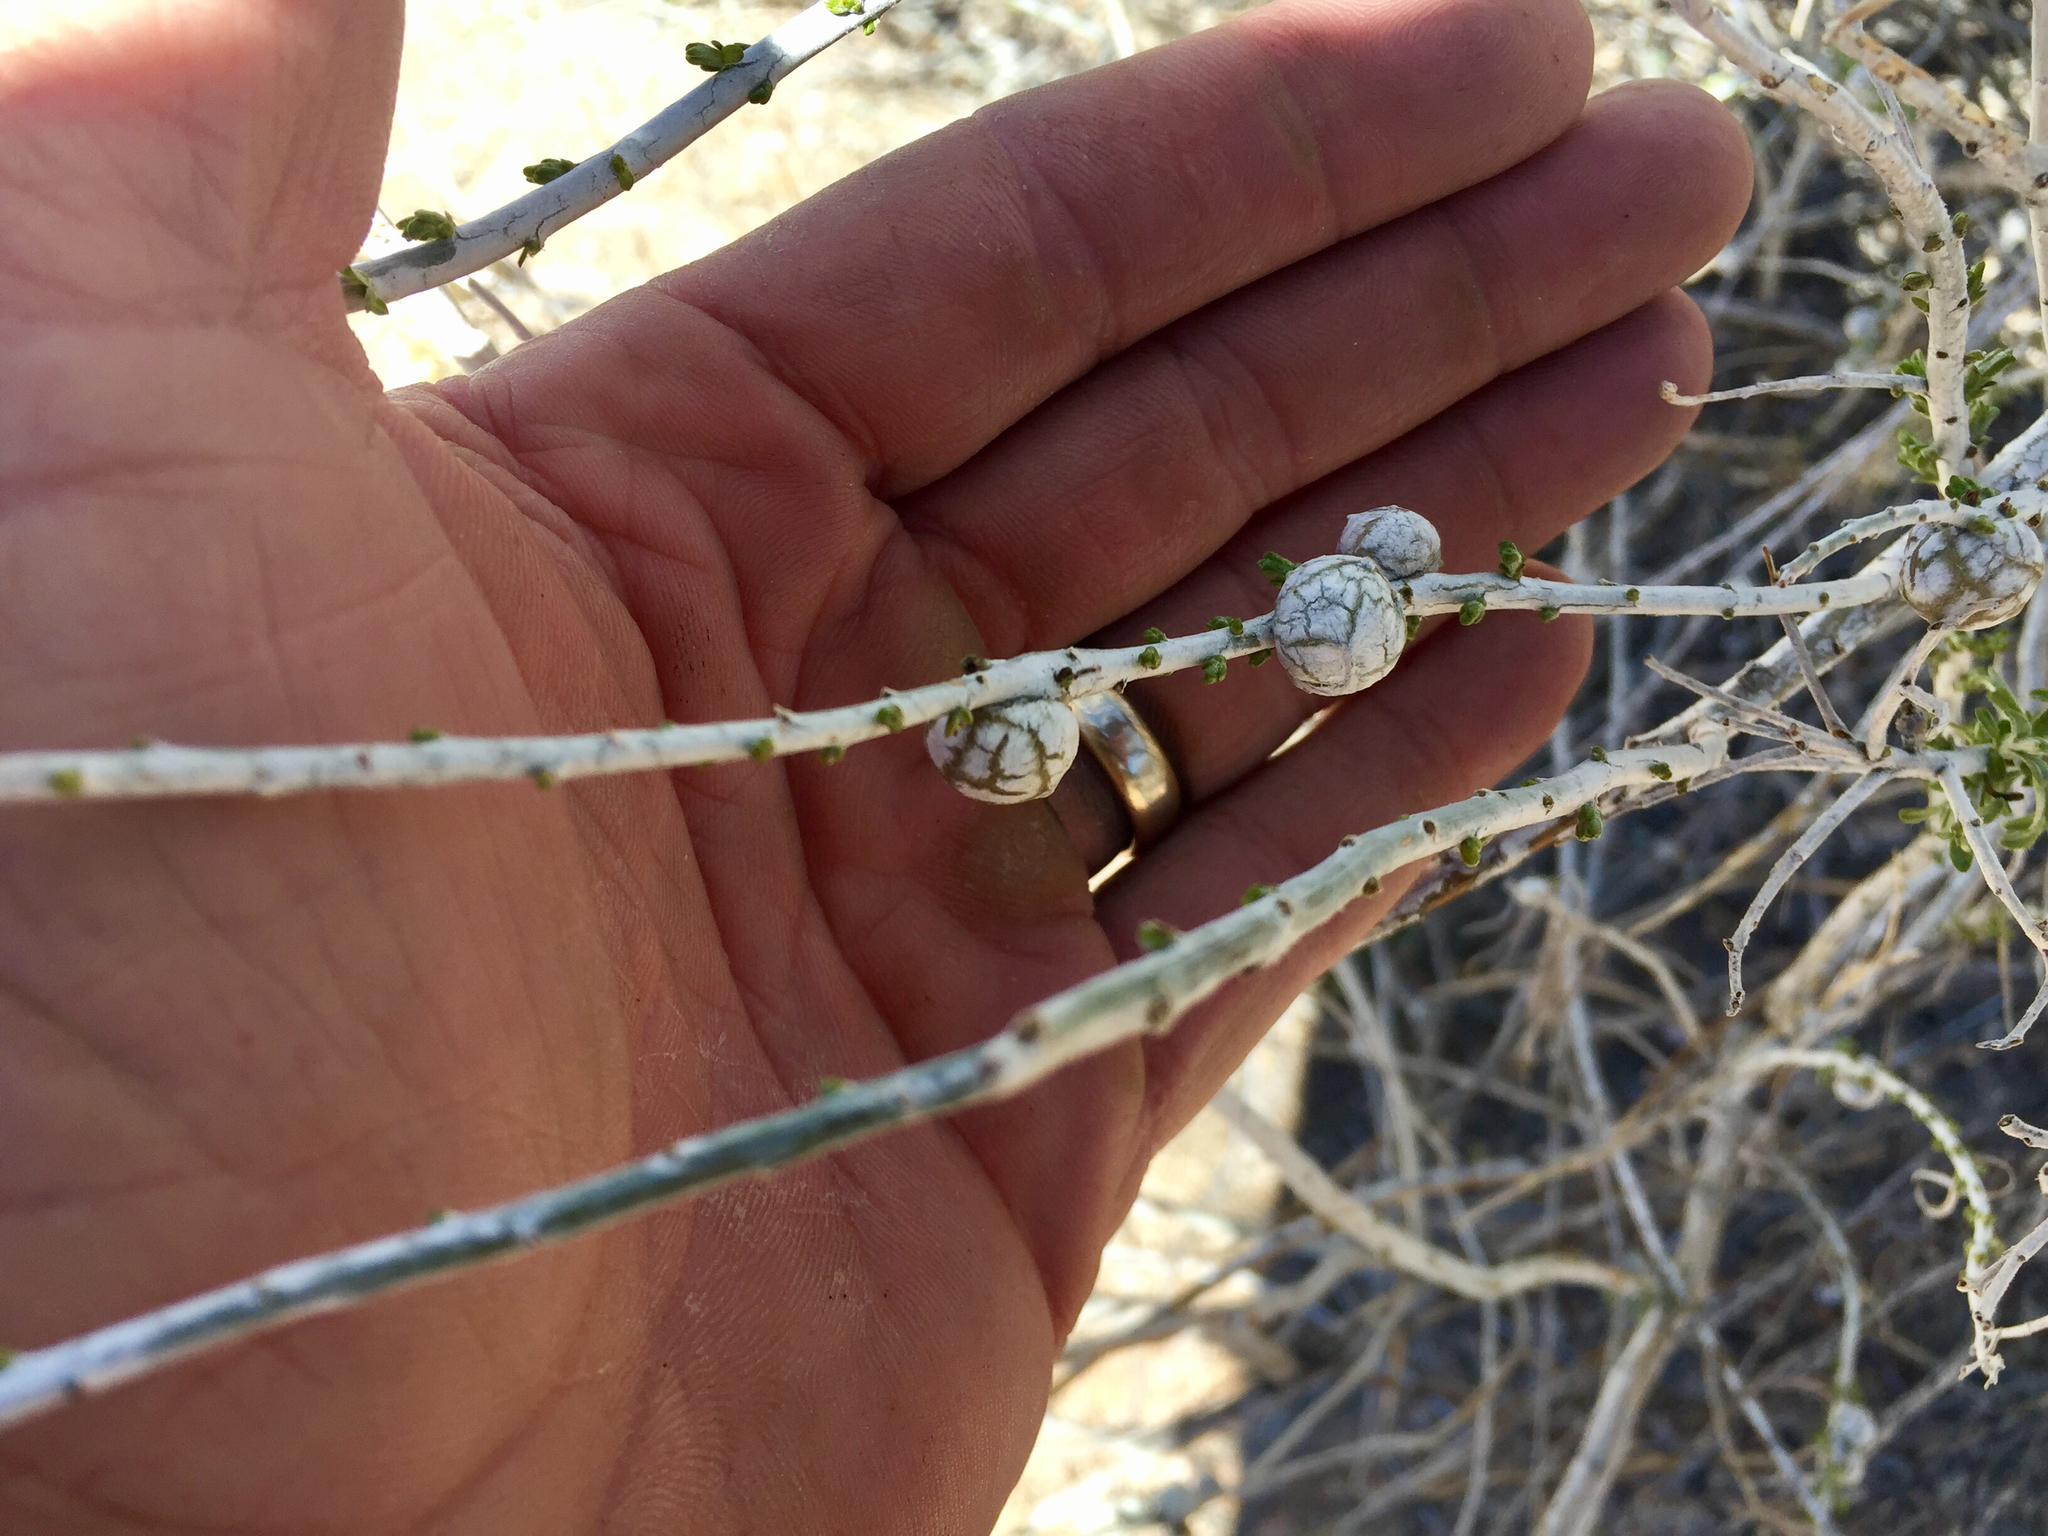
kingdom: Animalia
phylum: Arthropoda
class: Insecta
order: Diptera
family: Tephritidae
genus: Aciurina
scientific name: Aciurina trixa
